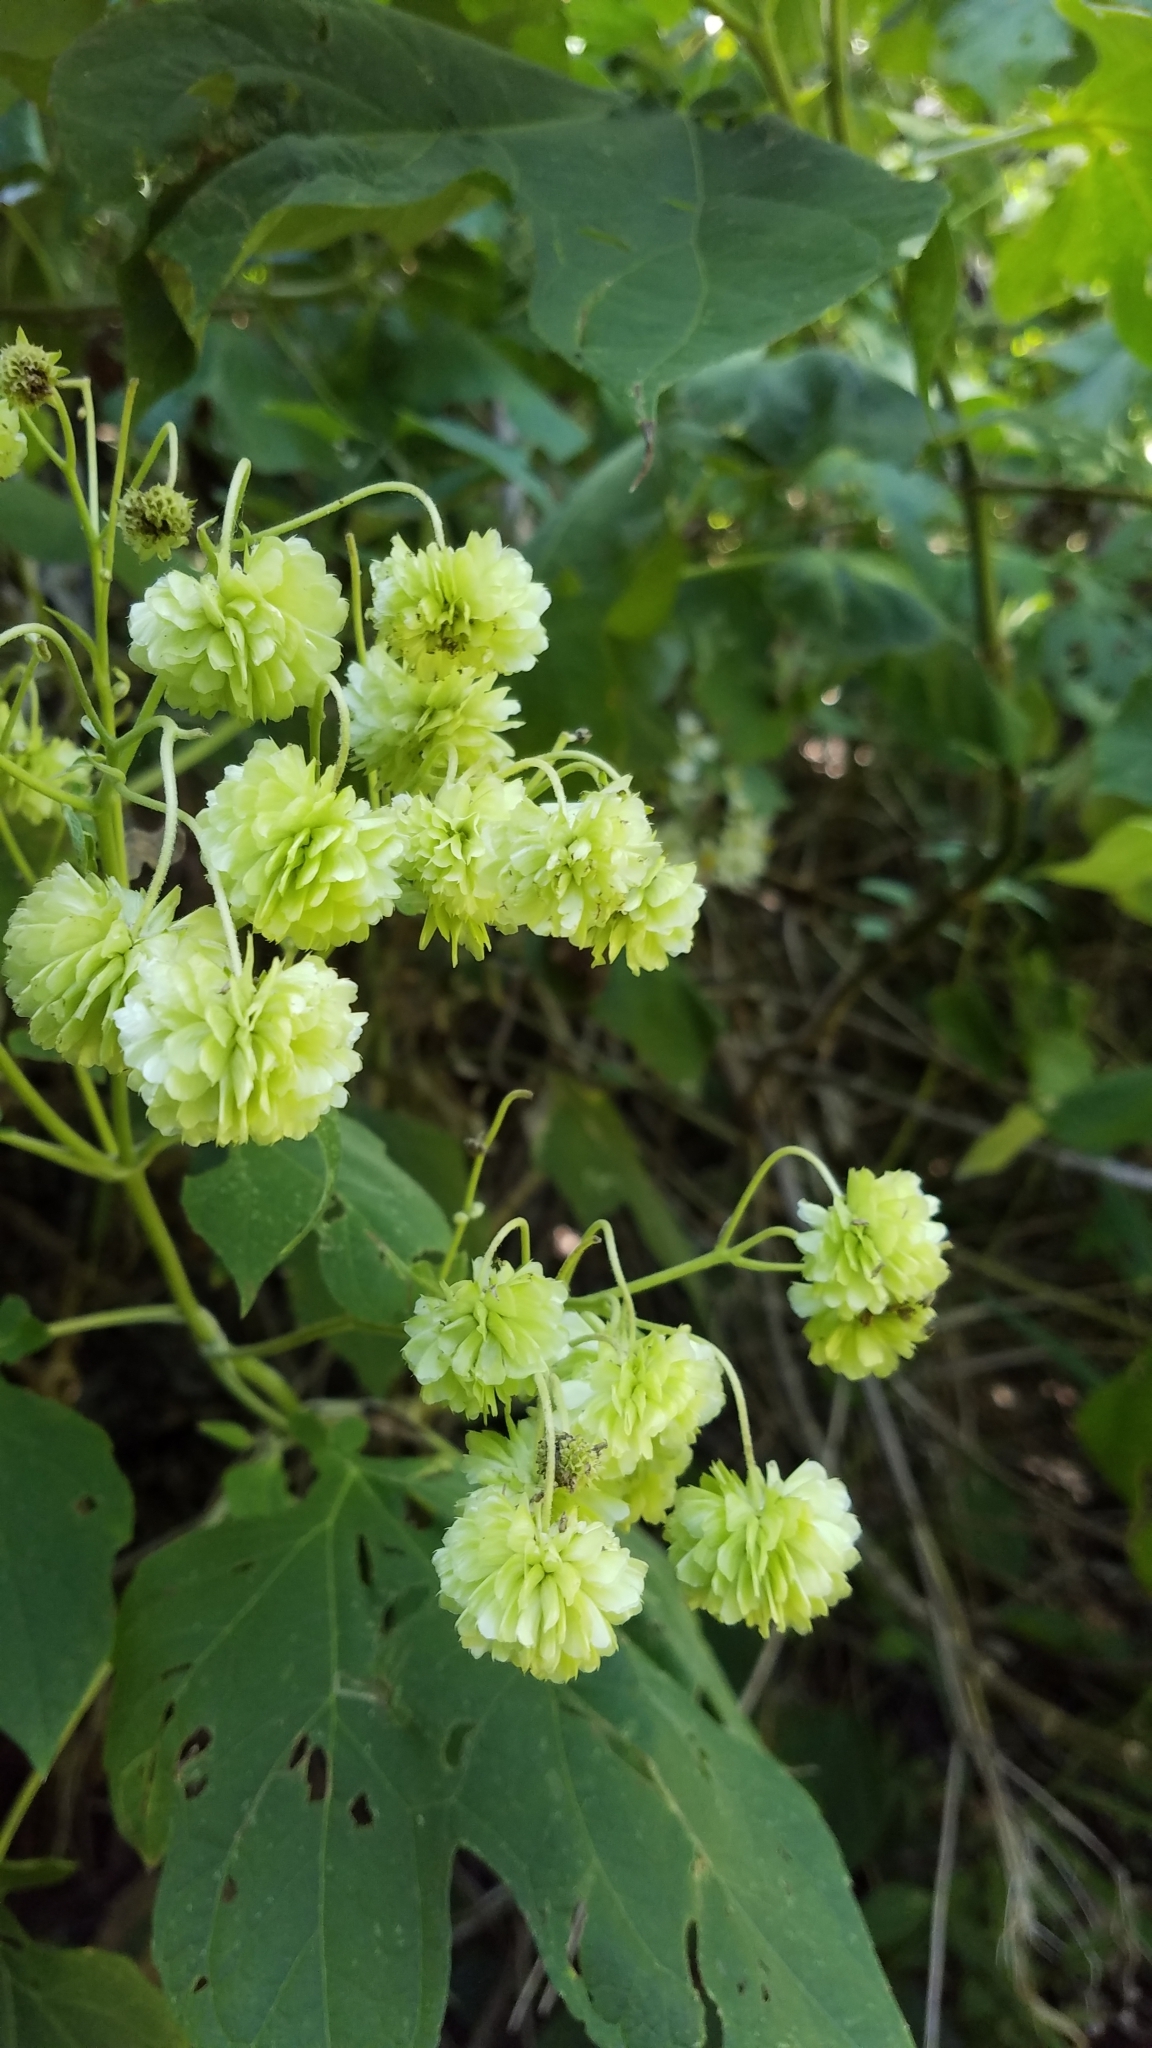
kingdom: Plantae
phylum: Tracheophyta
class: Magnoliopsida
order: Asterales
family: Asteraceae
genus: Montanoa
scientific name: Montanoa hibiscifolia
